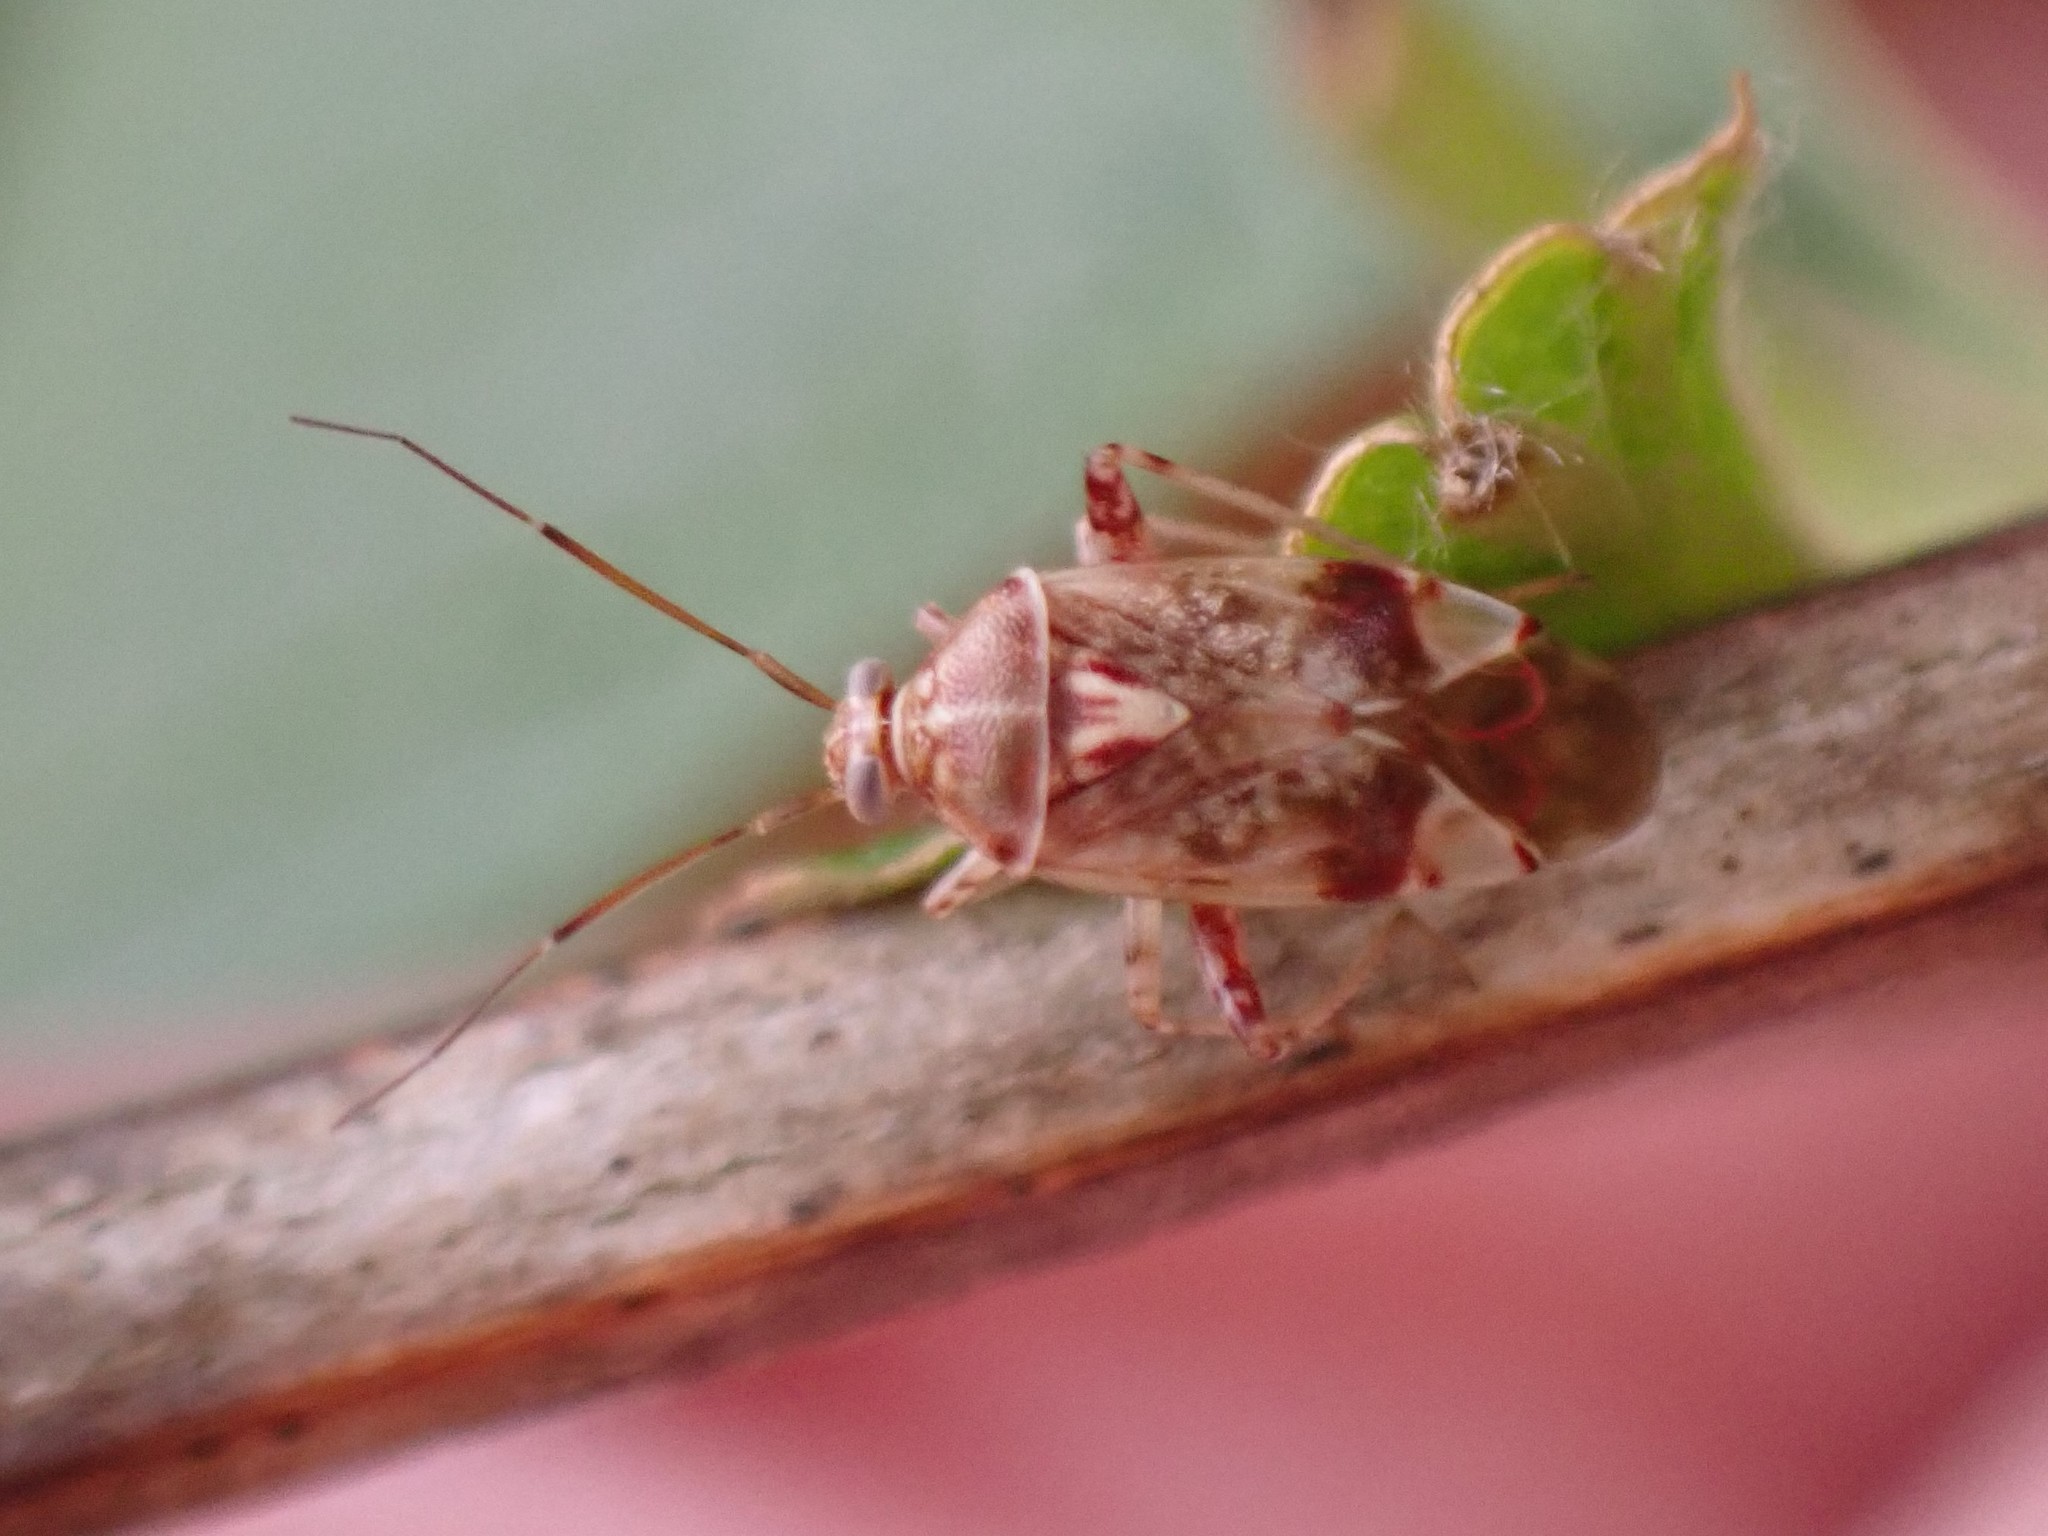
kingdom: Animalia
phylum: Arthropoda
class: Insecta
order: Hemiptera
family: Miridae
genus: Nonlygus
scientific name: Nonlygus nubilatus
